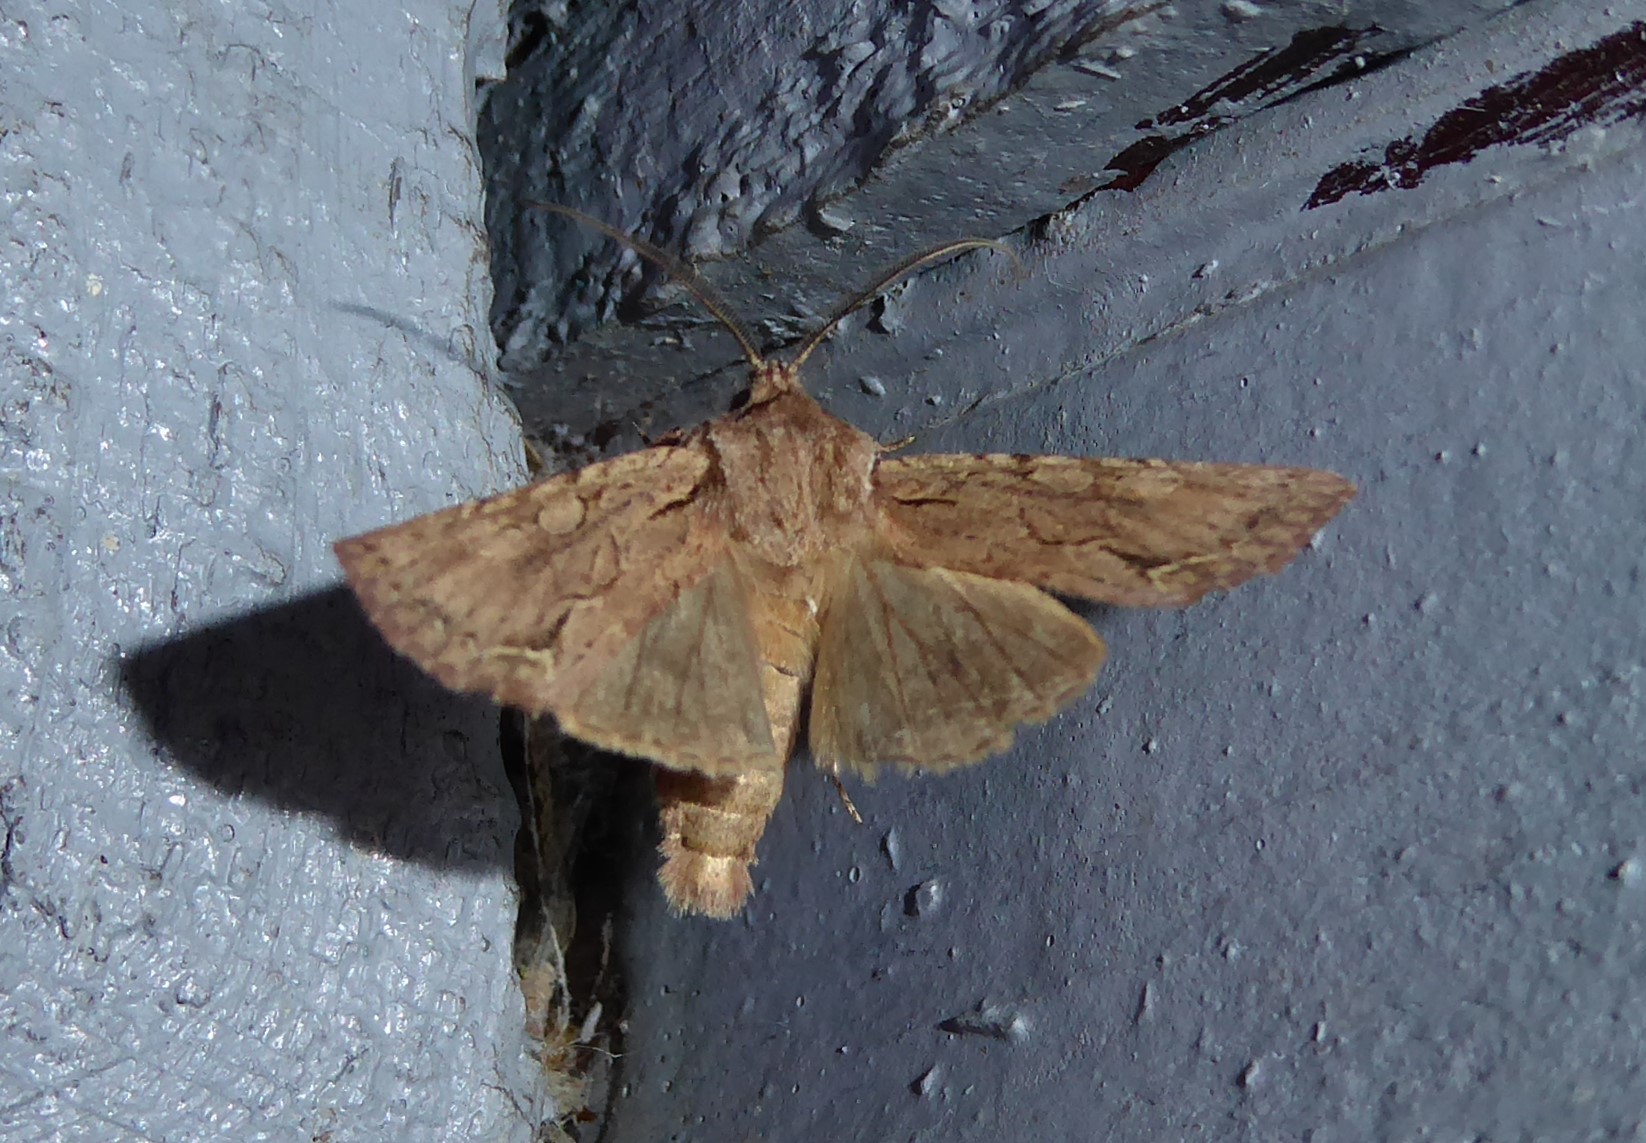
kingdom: Animalia
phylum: Arthropoda
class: Insecta
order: Lepidoptera
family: Noctuidae
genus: Ichneutica
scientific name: Ichneutica
